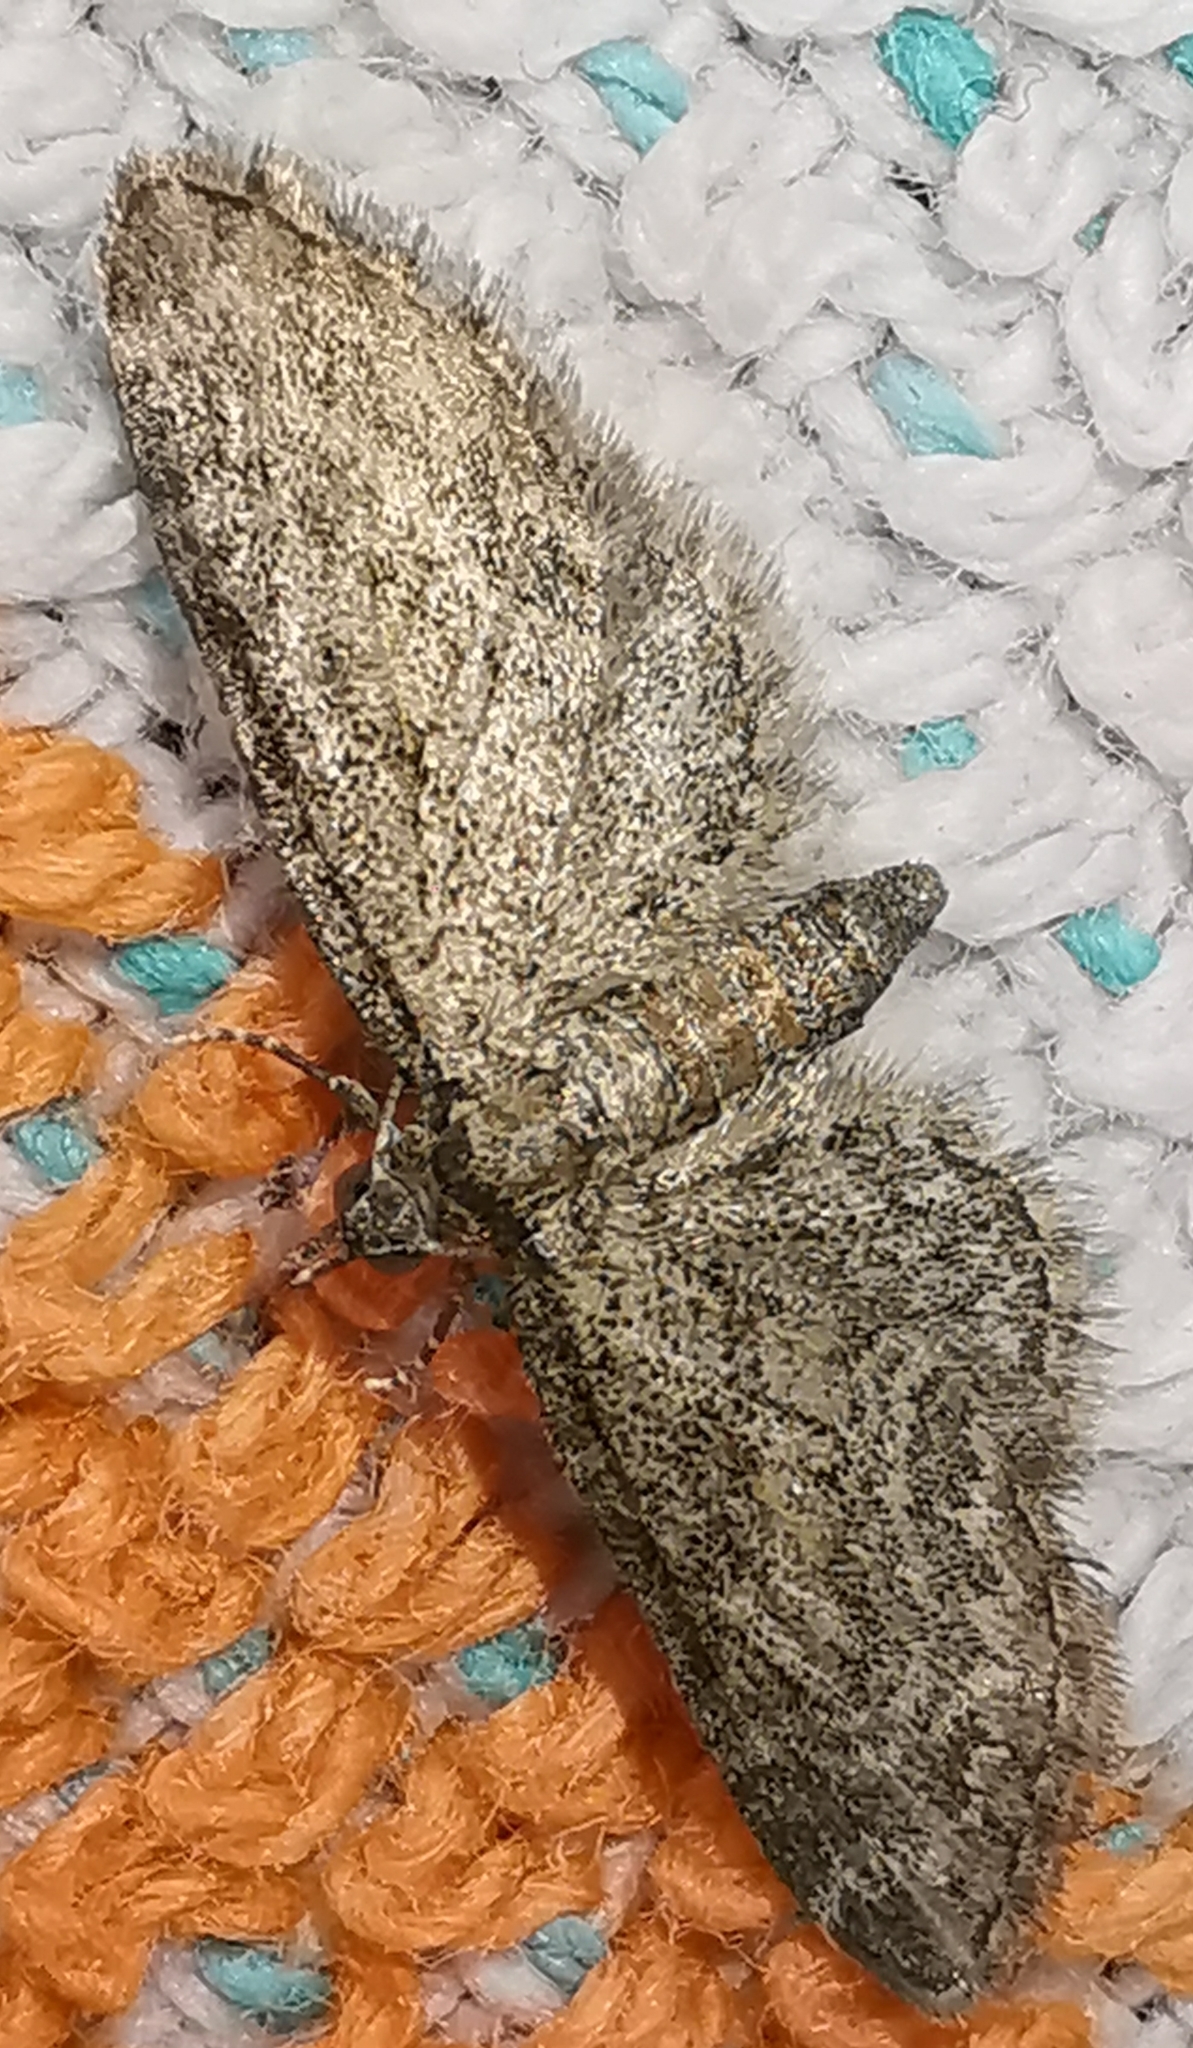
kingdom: Animalia
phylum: Arthropoda
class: Insecta
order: Lepidoptera
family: Geometridae
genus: Eupithecia
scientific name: Eupithecia inturbata
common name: Maple pug
